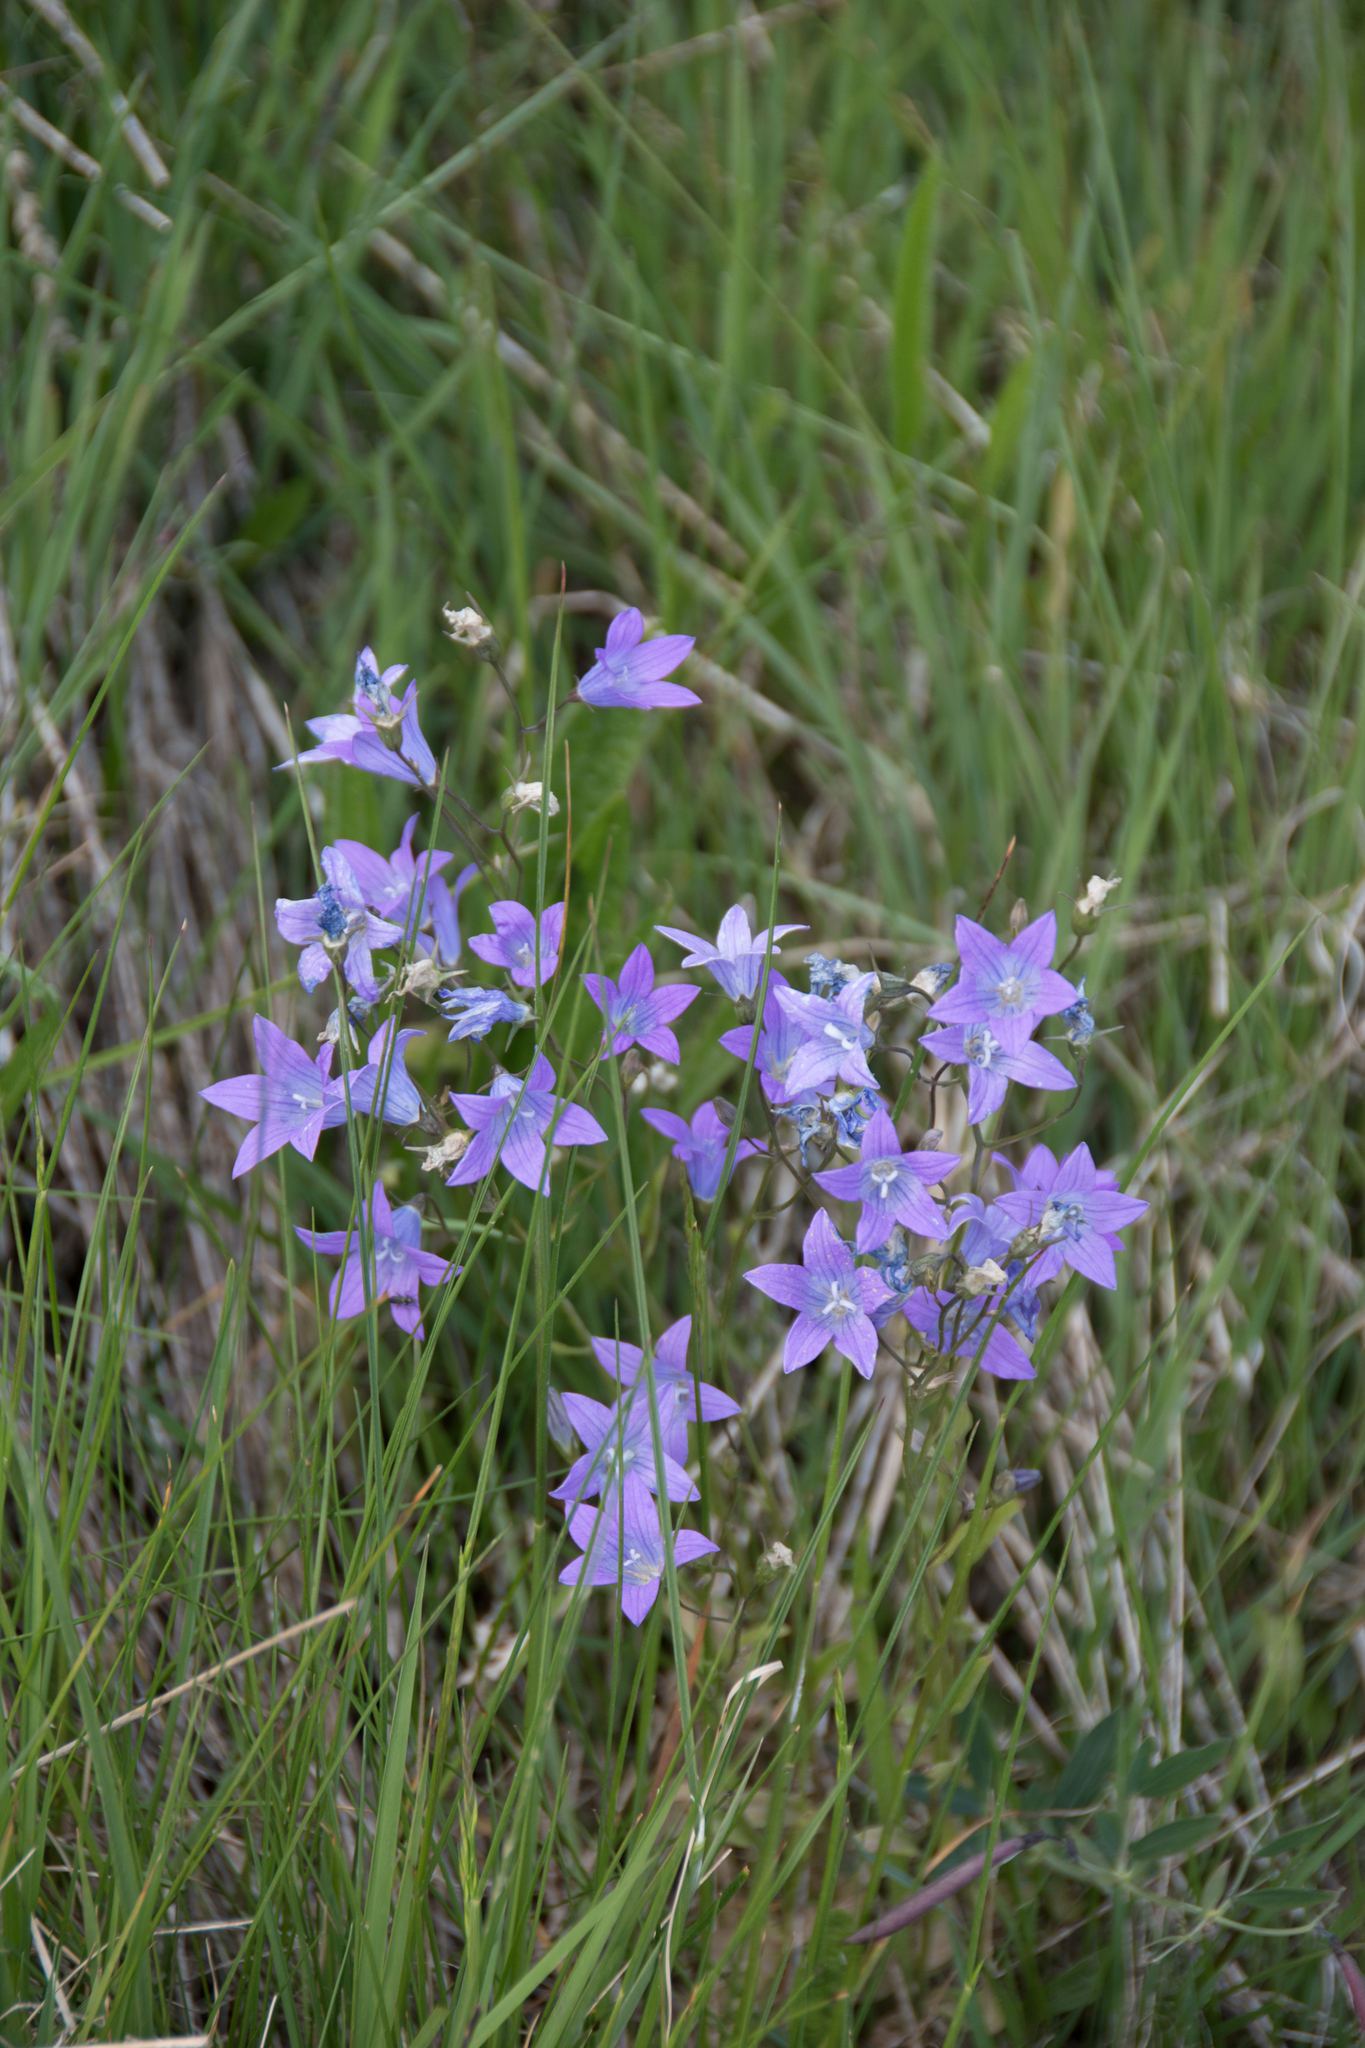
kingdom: Plantae
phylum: Tracheophyta
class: Magnoliopsida
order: Asterales
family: Campanulaceae
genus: Campanula
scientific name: Campanula patula
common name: Spreading bellflower
